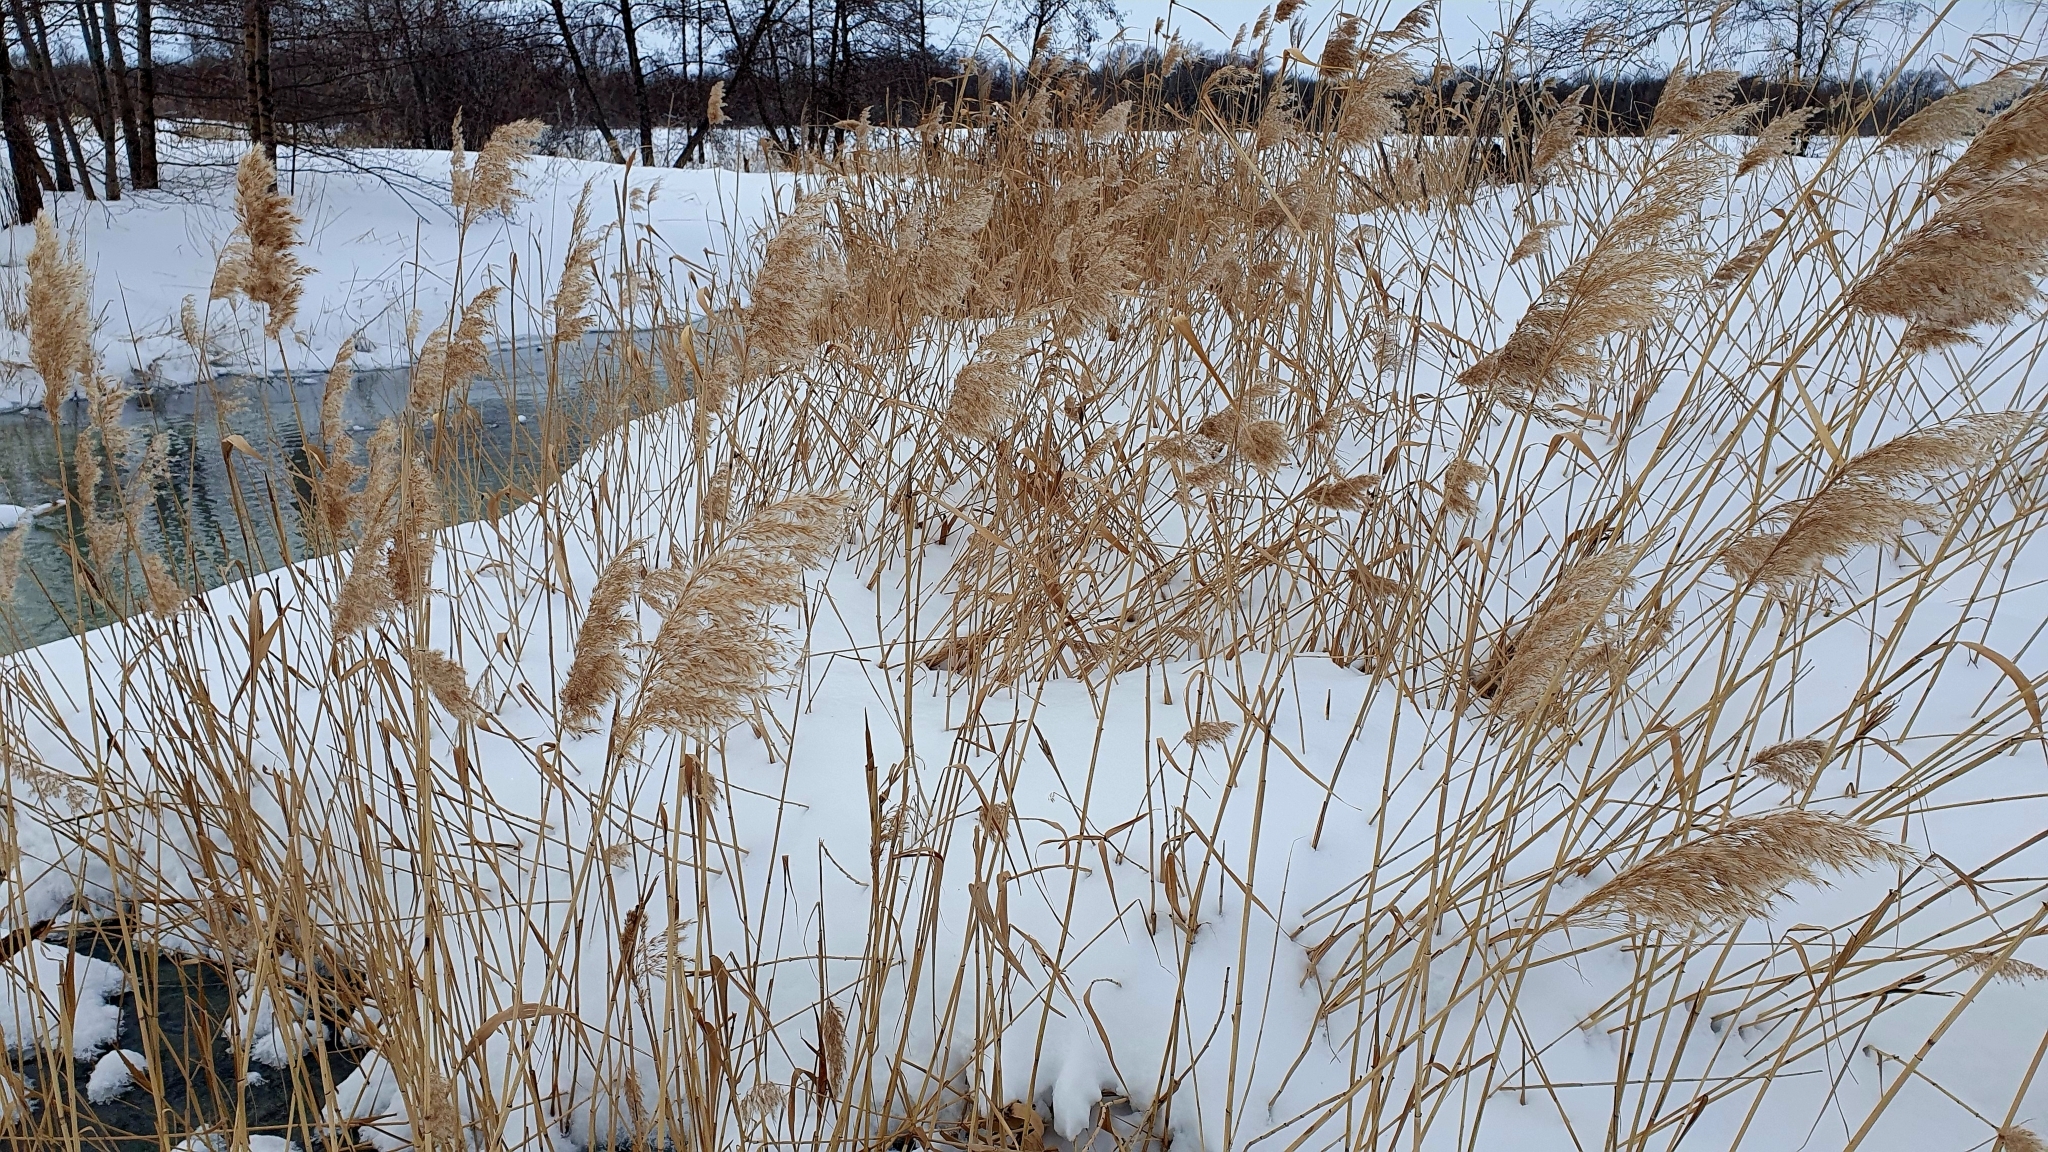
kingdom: Plantae
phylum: Tracheophyta
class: Liliopsida
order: Poales
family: Poaceae
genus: Phragmites
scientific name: Phragmites australis
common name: Common reed
